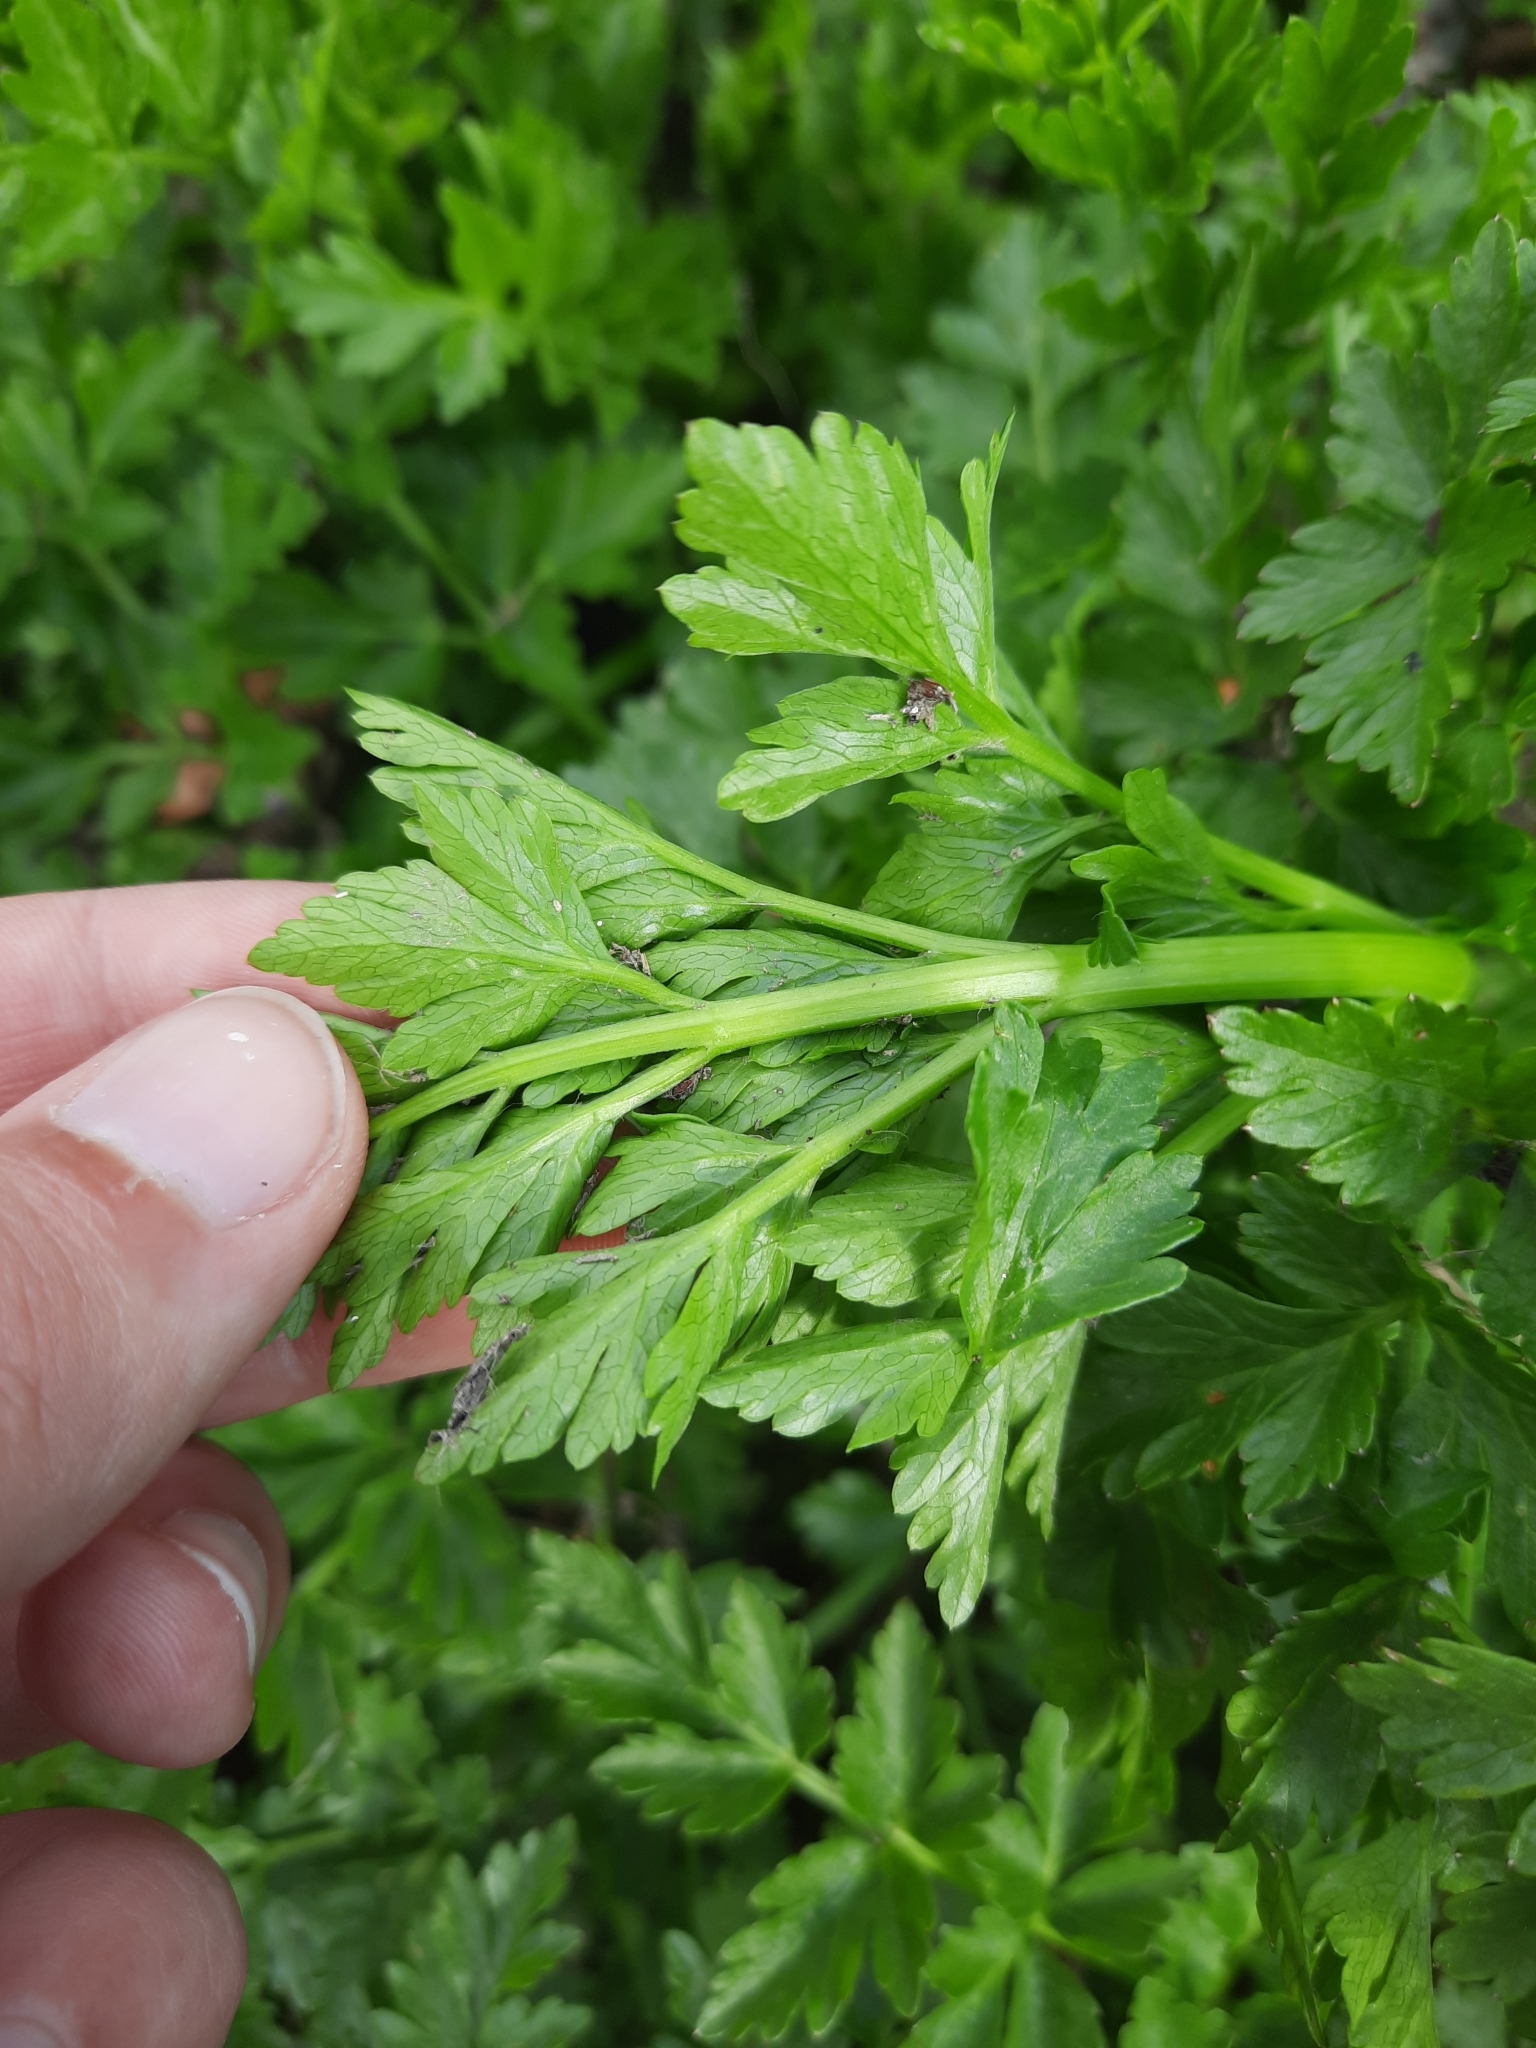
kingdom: Plantae
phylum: Tracheophyta
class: Magnoliopsida
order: Apiales
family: Apiaceae
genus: Oenanthe
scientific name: Oenanthe crocata
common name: Hemlock water-dropwort
